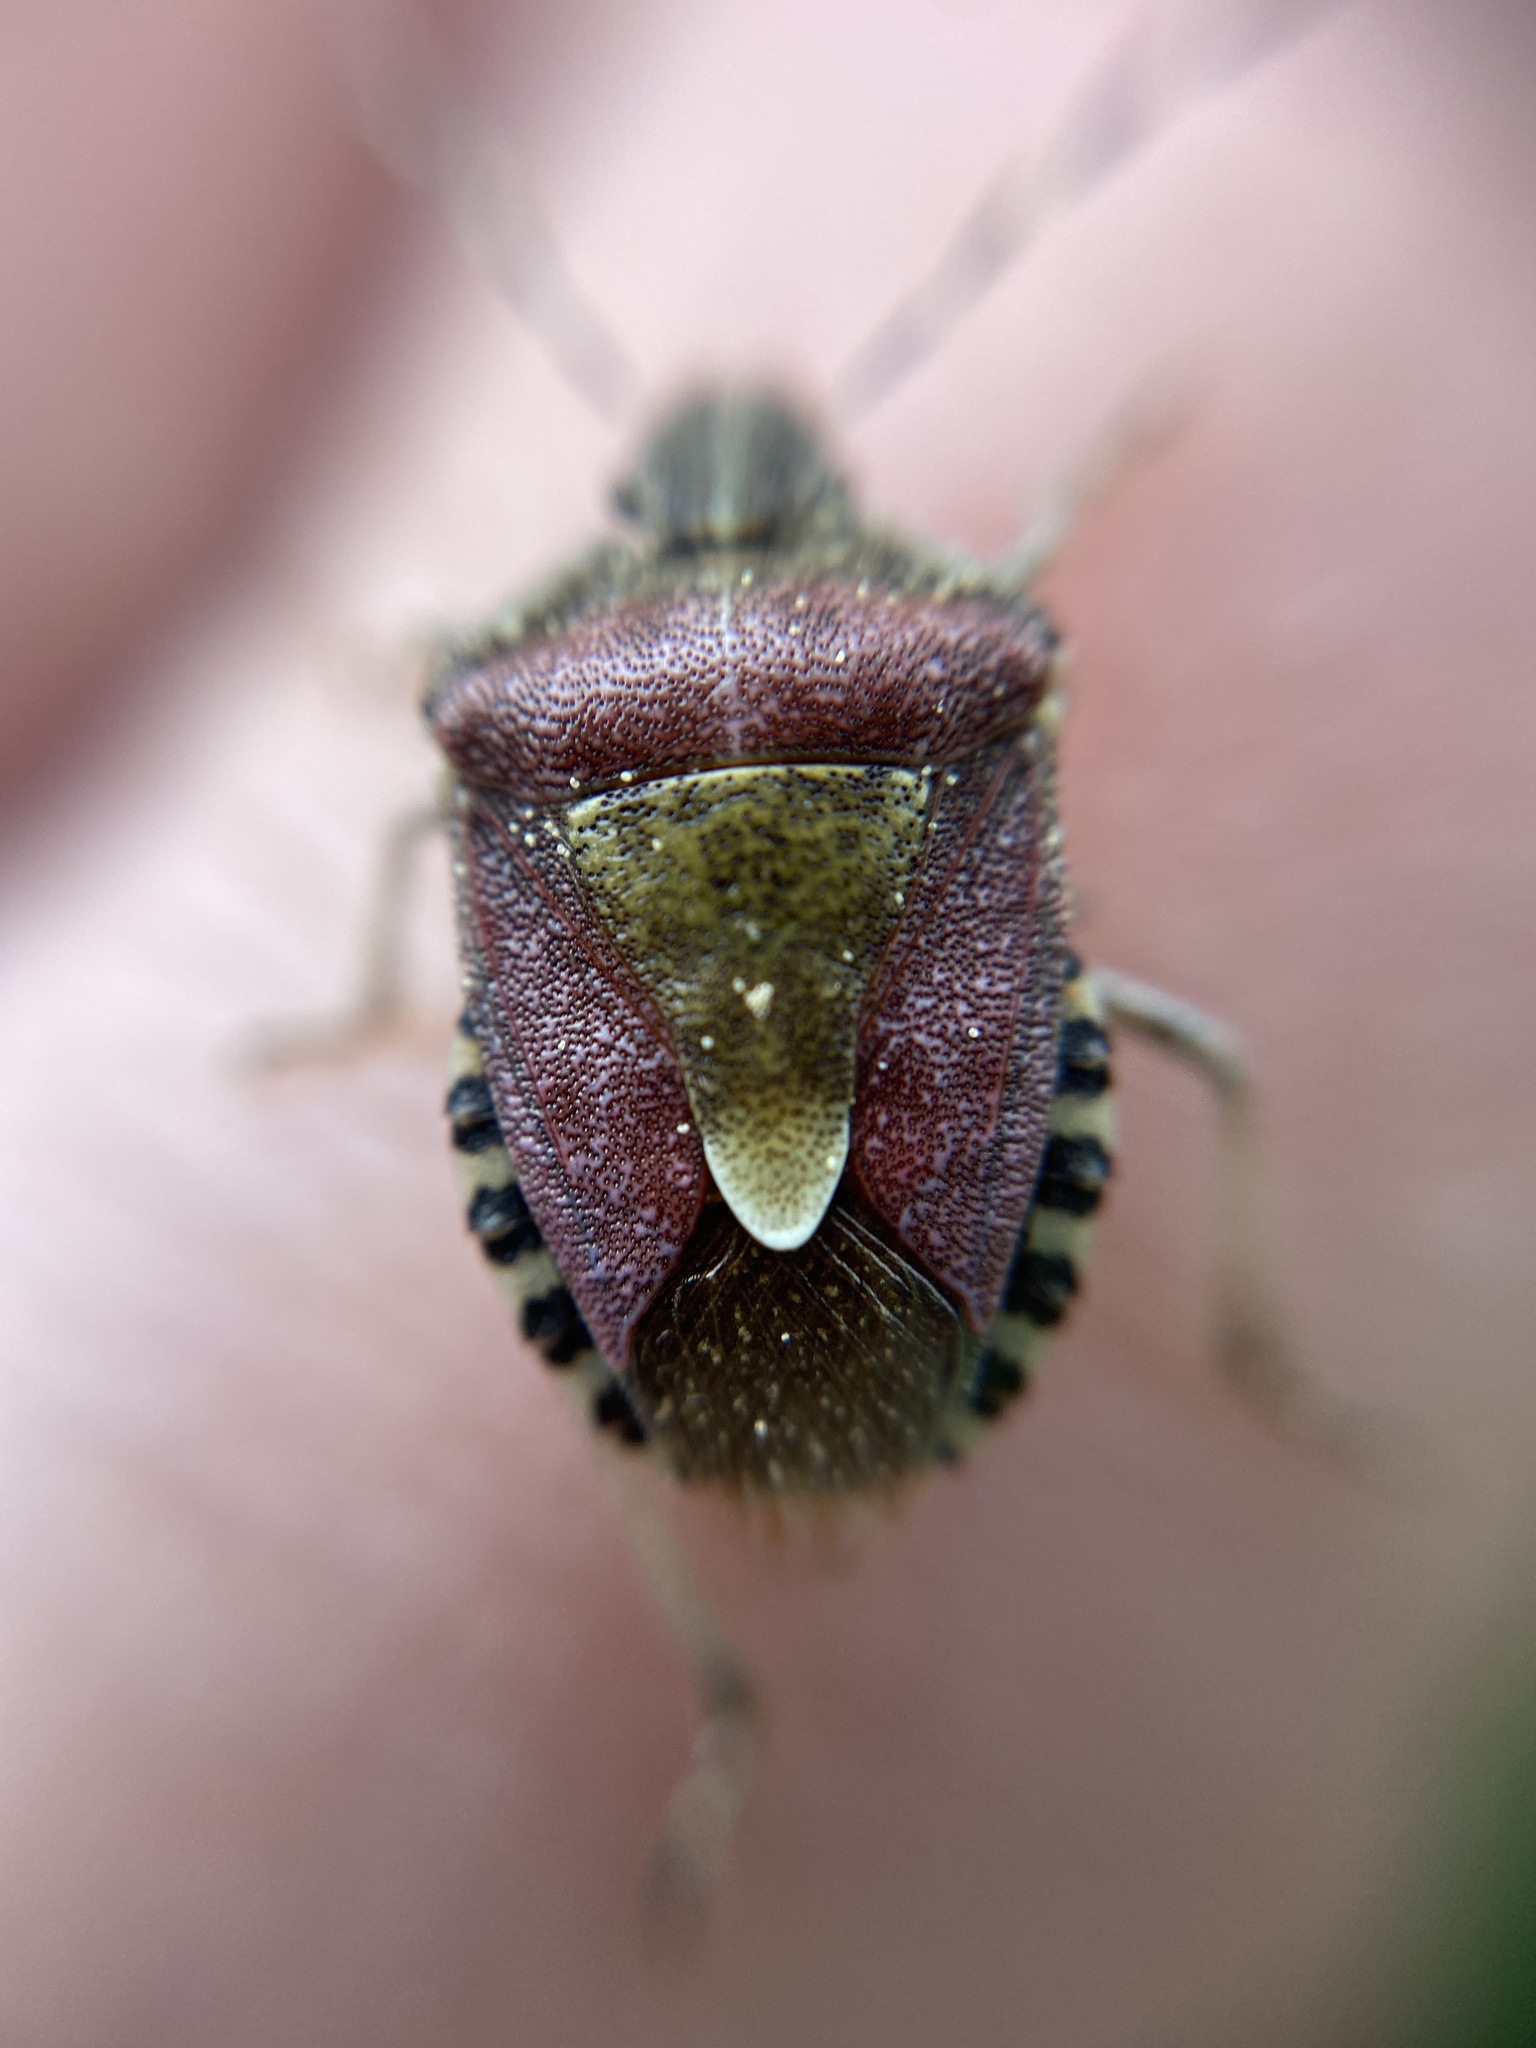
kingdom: Animalia
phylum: Arthropoda
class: Insecta
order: Hemiptera
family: Pentatomidae
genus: Dolycoris
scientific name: Dolycoris baccarum
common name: Sloe bug
